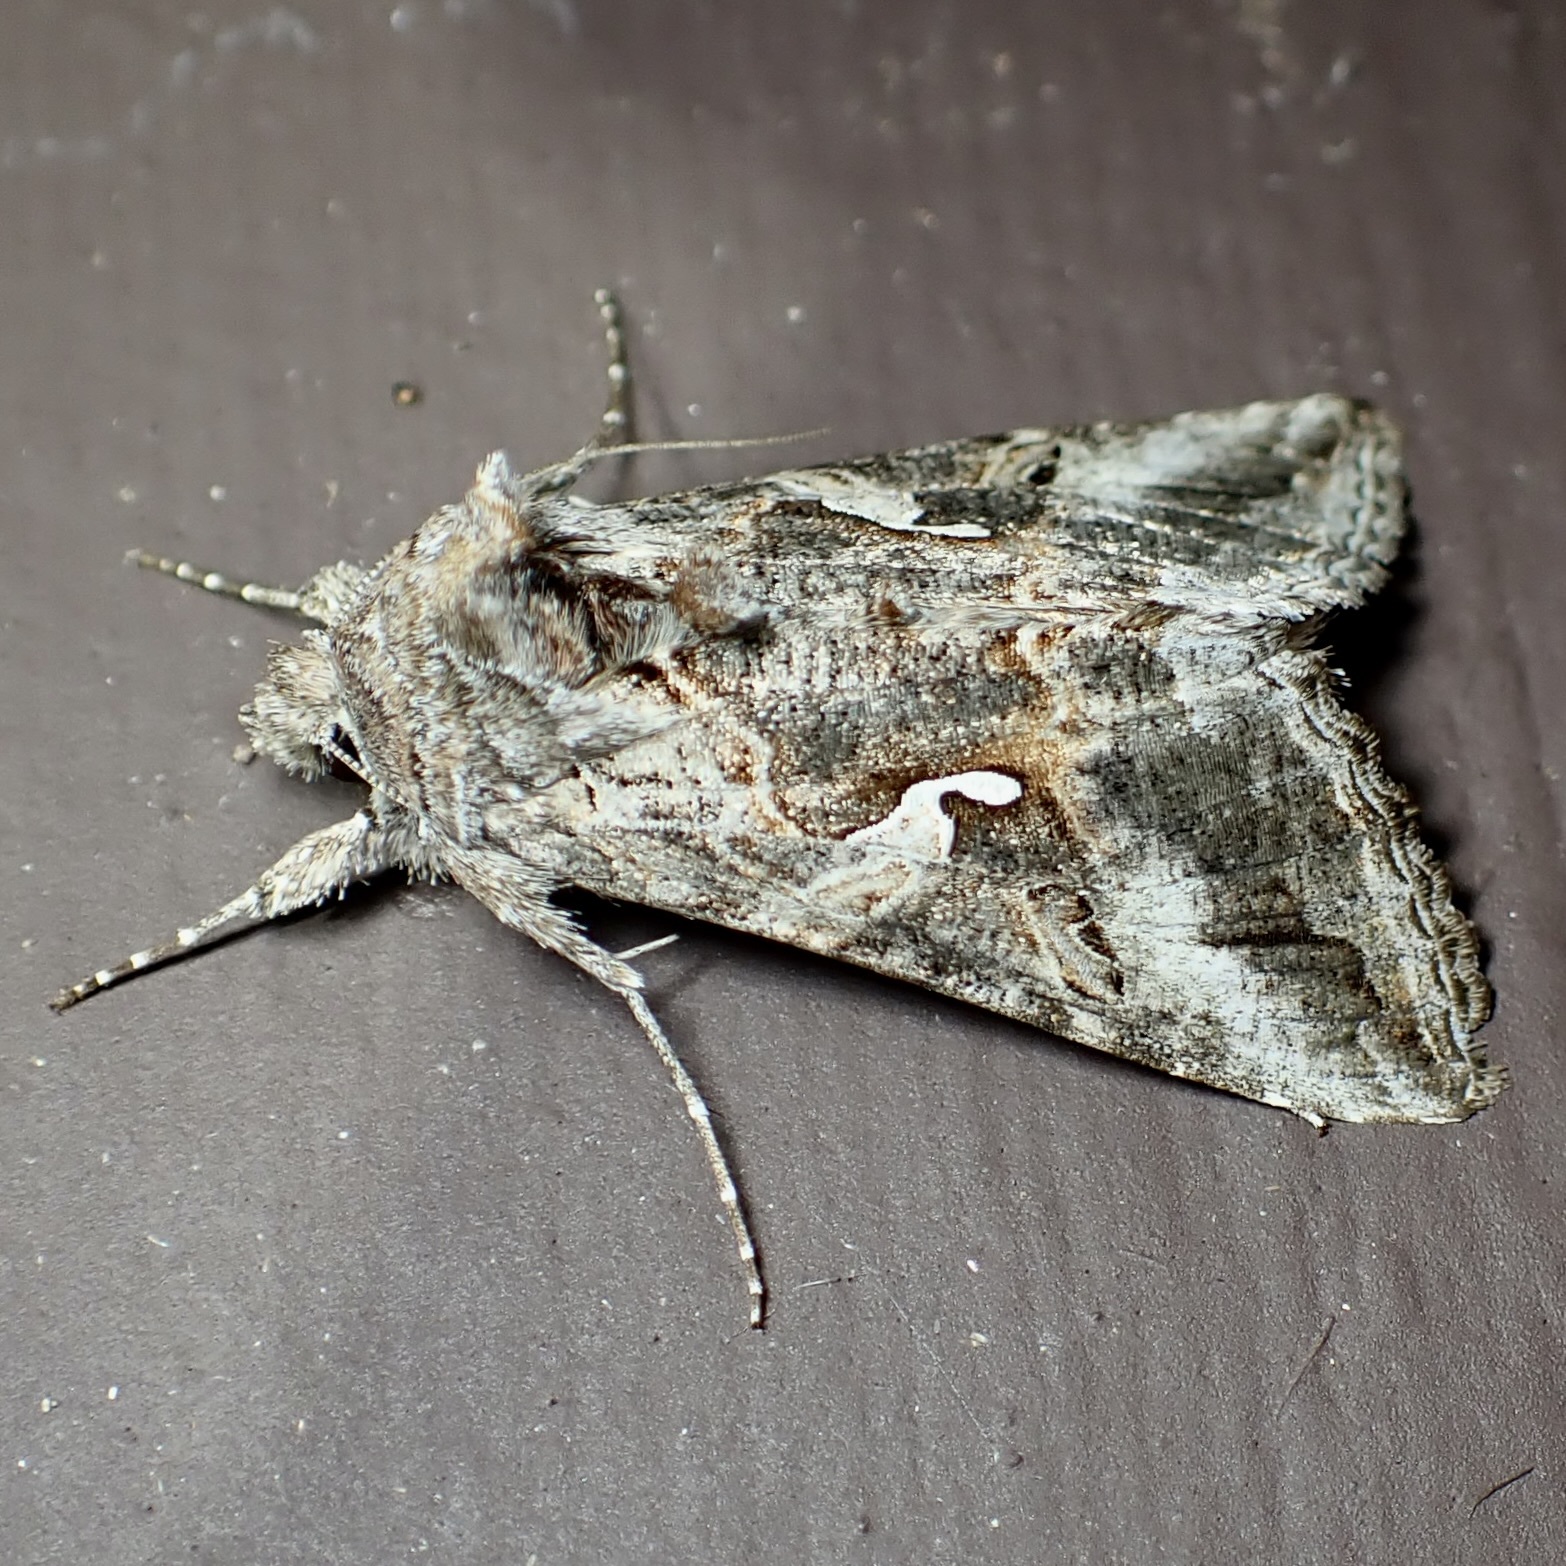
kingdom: Animalia
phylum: Arthropoda
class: Insecta
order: Lepidoptera
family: Noctuidae
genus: Autographa
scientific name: Autographa californica
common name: Alfalfa looper
